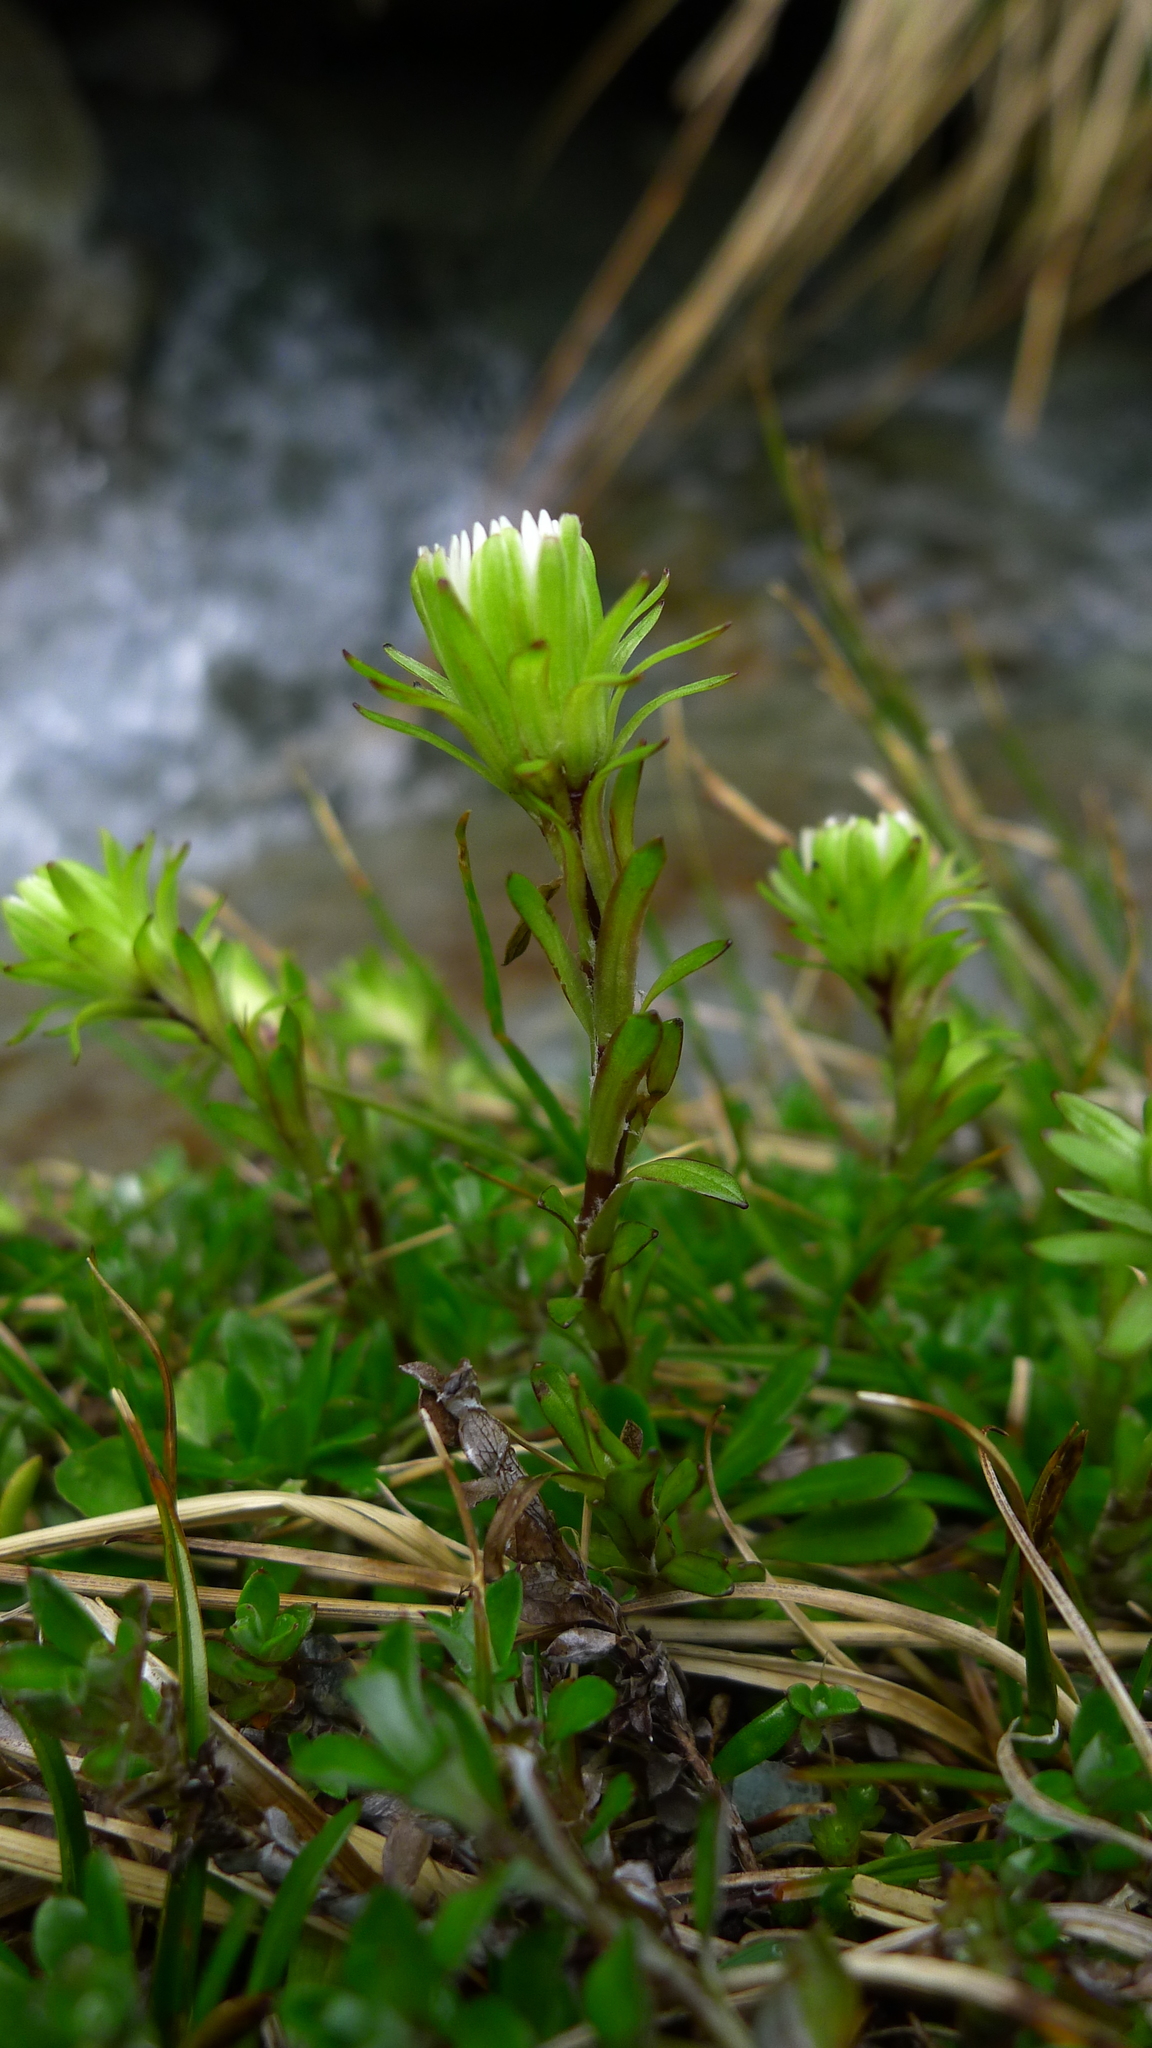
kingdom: Plantae
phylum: Tracheophyta
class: Magnoliopsida
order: Asterales
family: Asteraceae
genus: Celmisia
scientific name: Celmisia bellidioides
